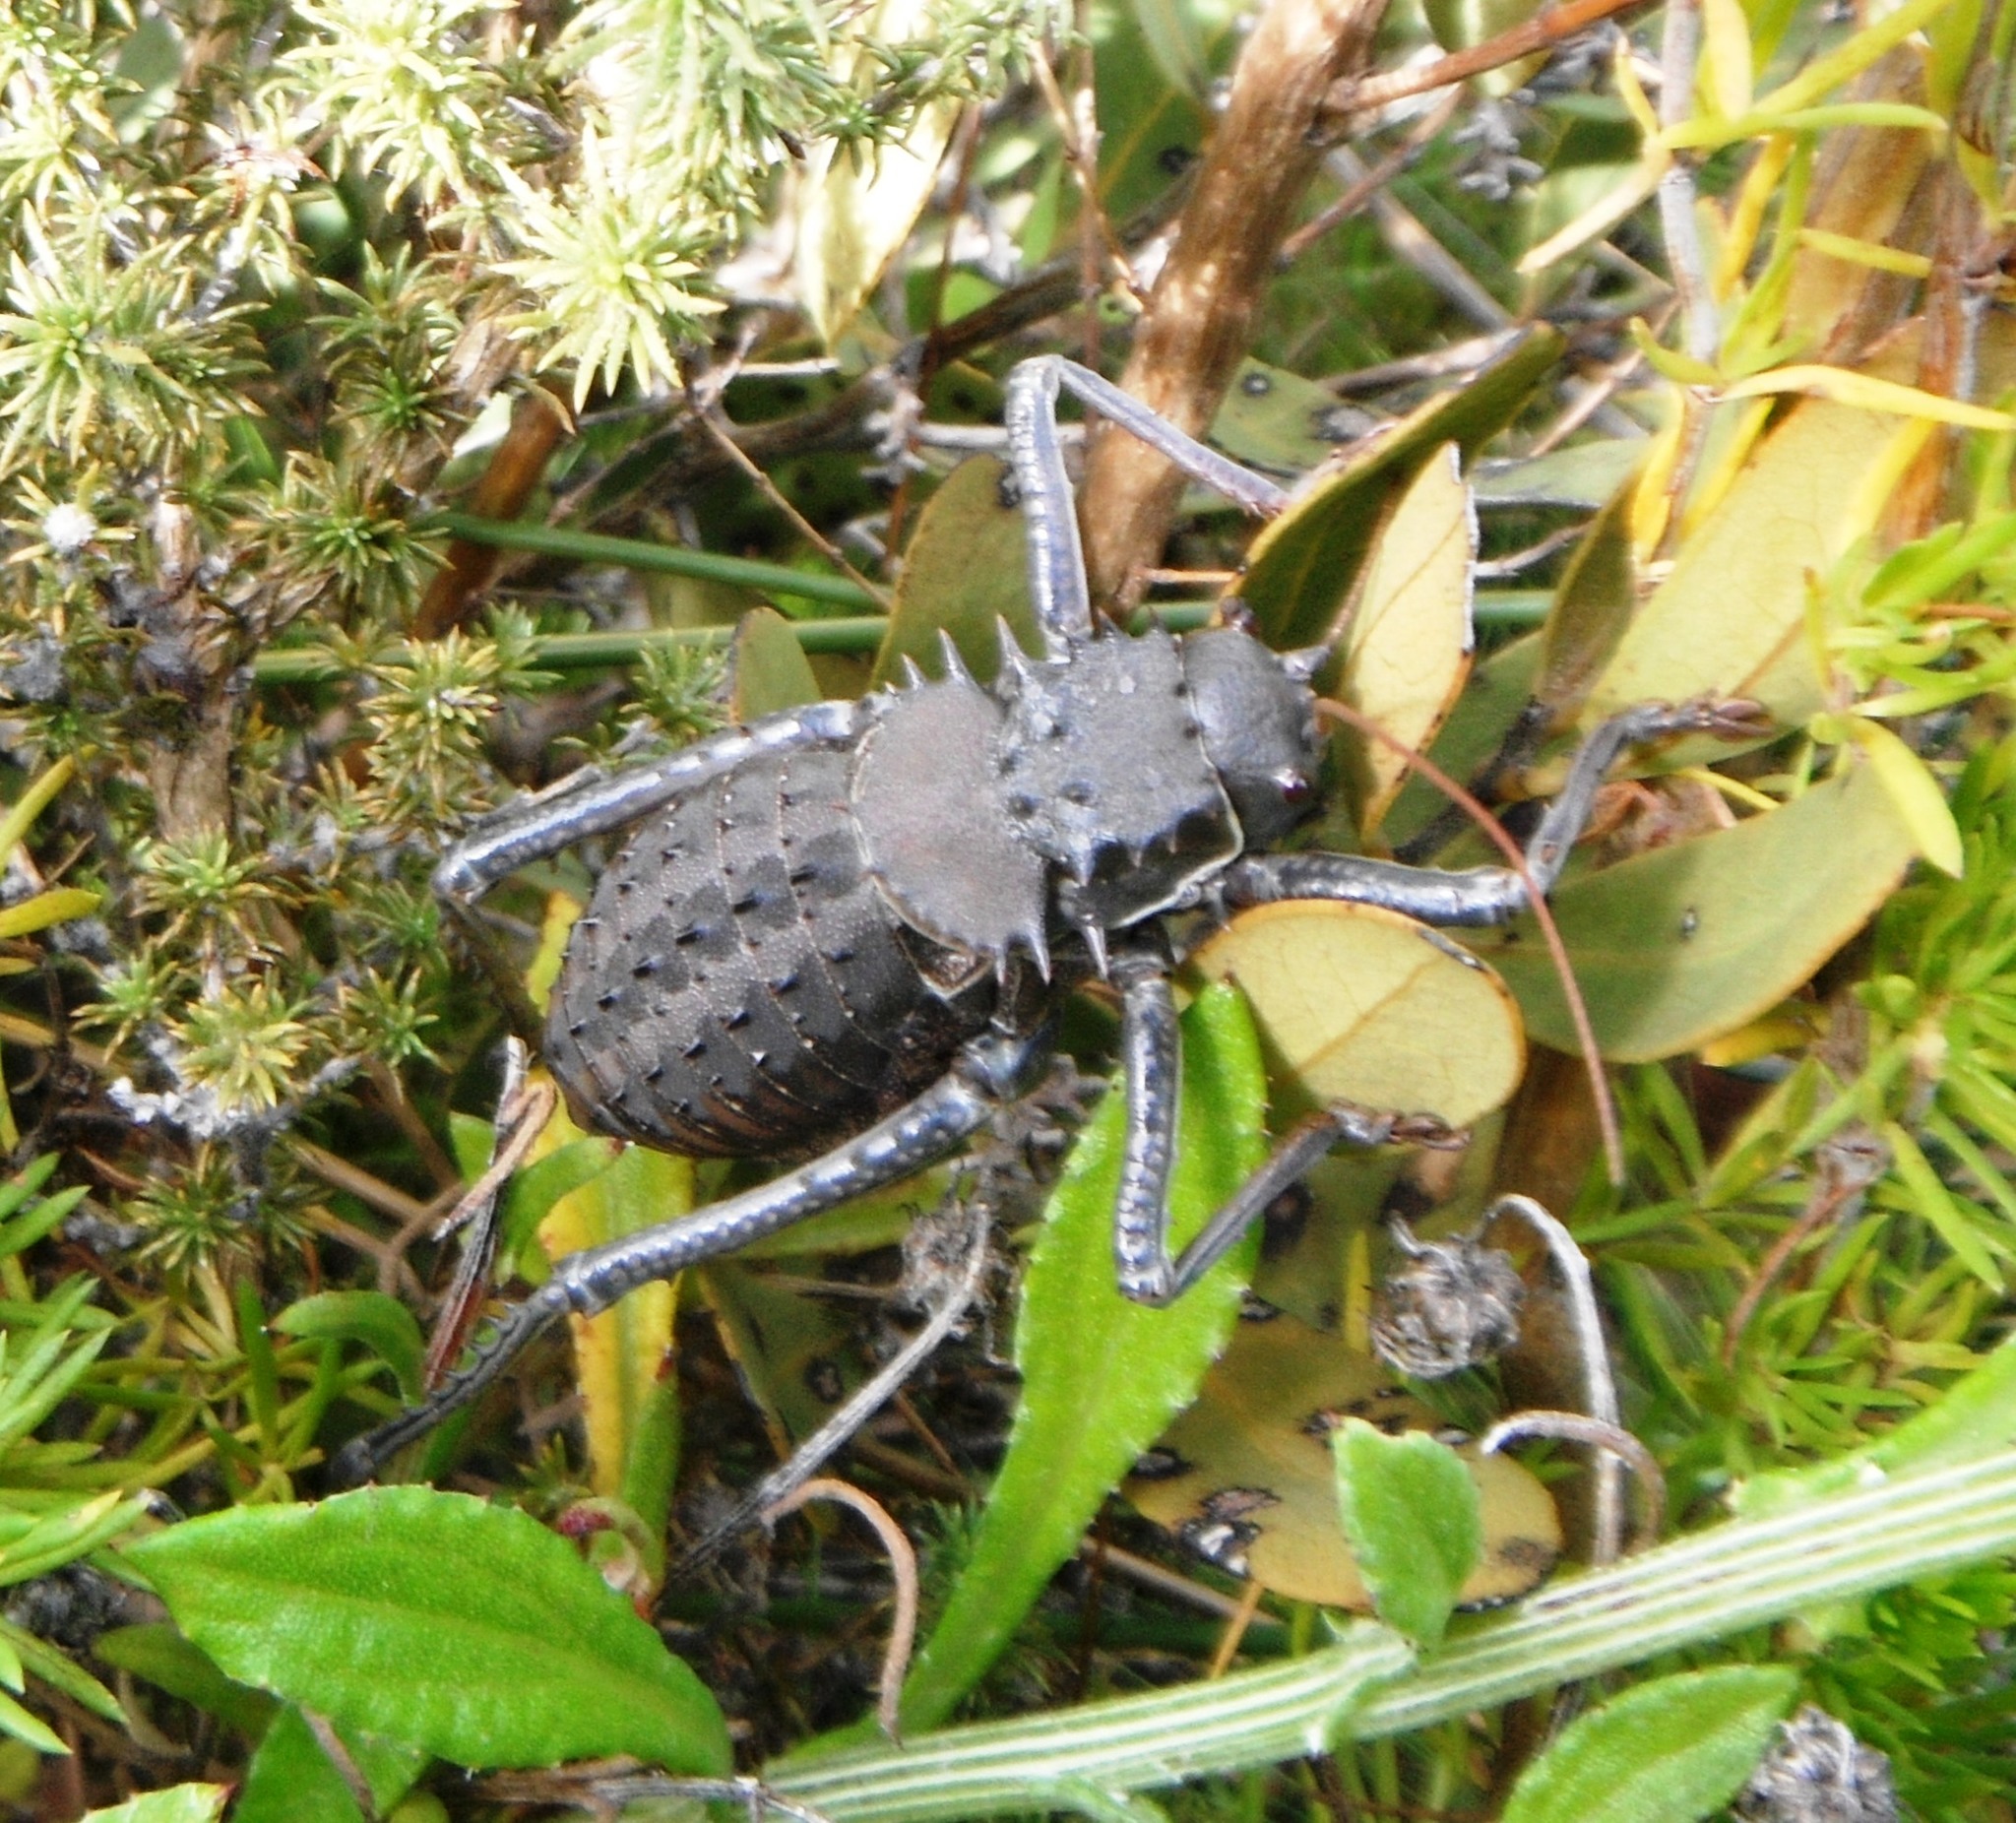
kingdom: Animalia
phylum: Arthropoda
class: Insecta
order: Orthoptera
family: Tettigoniidae
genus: Hetrodes
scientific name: Hetrodes pupus
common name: Koringkriek
